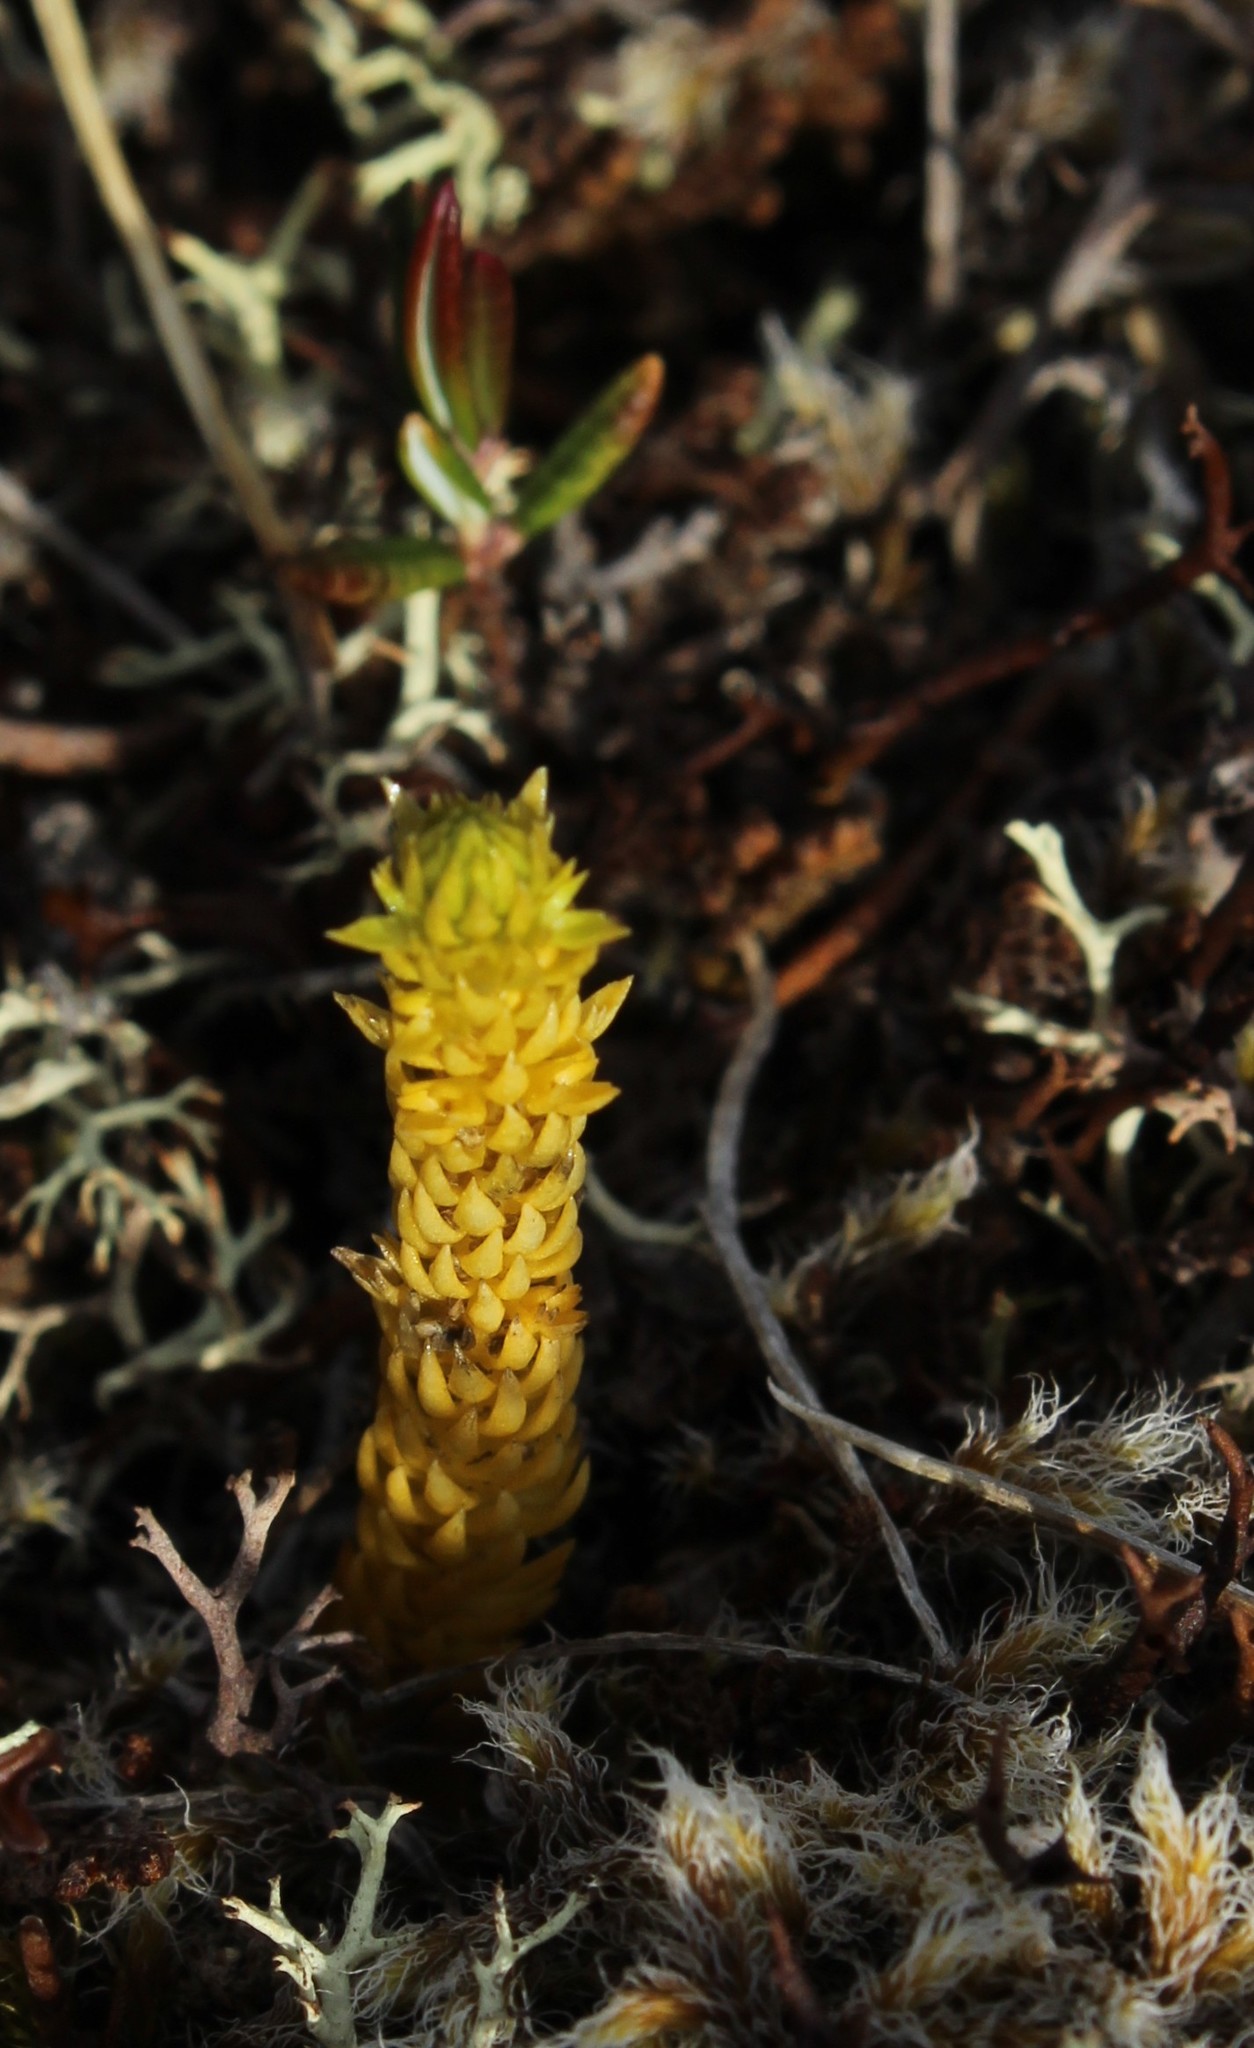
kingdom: Plantae
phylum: Tracheophyta
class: Lycopodiopsida
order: Lycopodiales
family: Lycopodiaceae
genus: Huperzia
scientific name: Huperzia selago
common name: Northern firmoss
